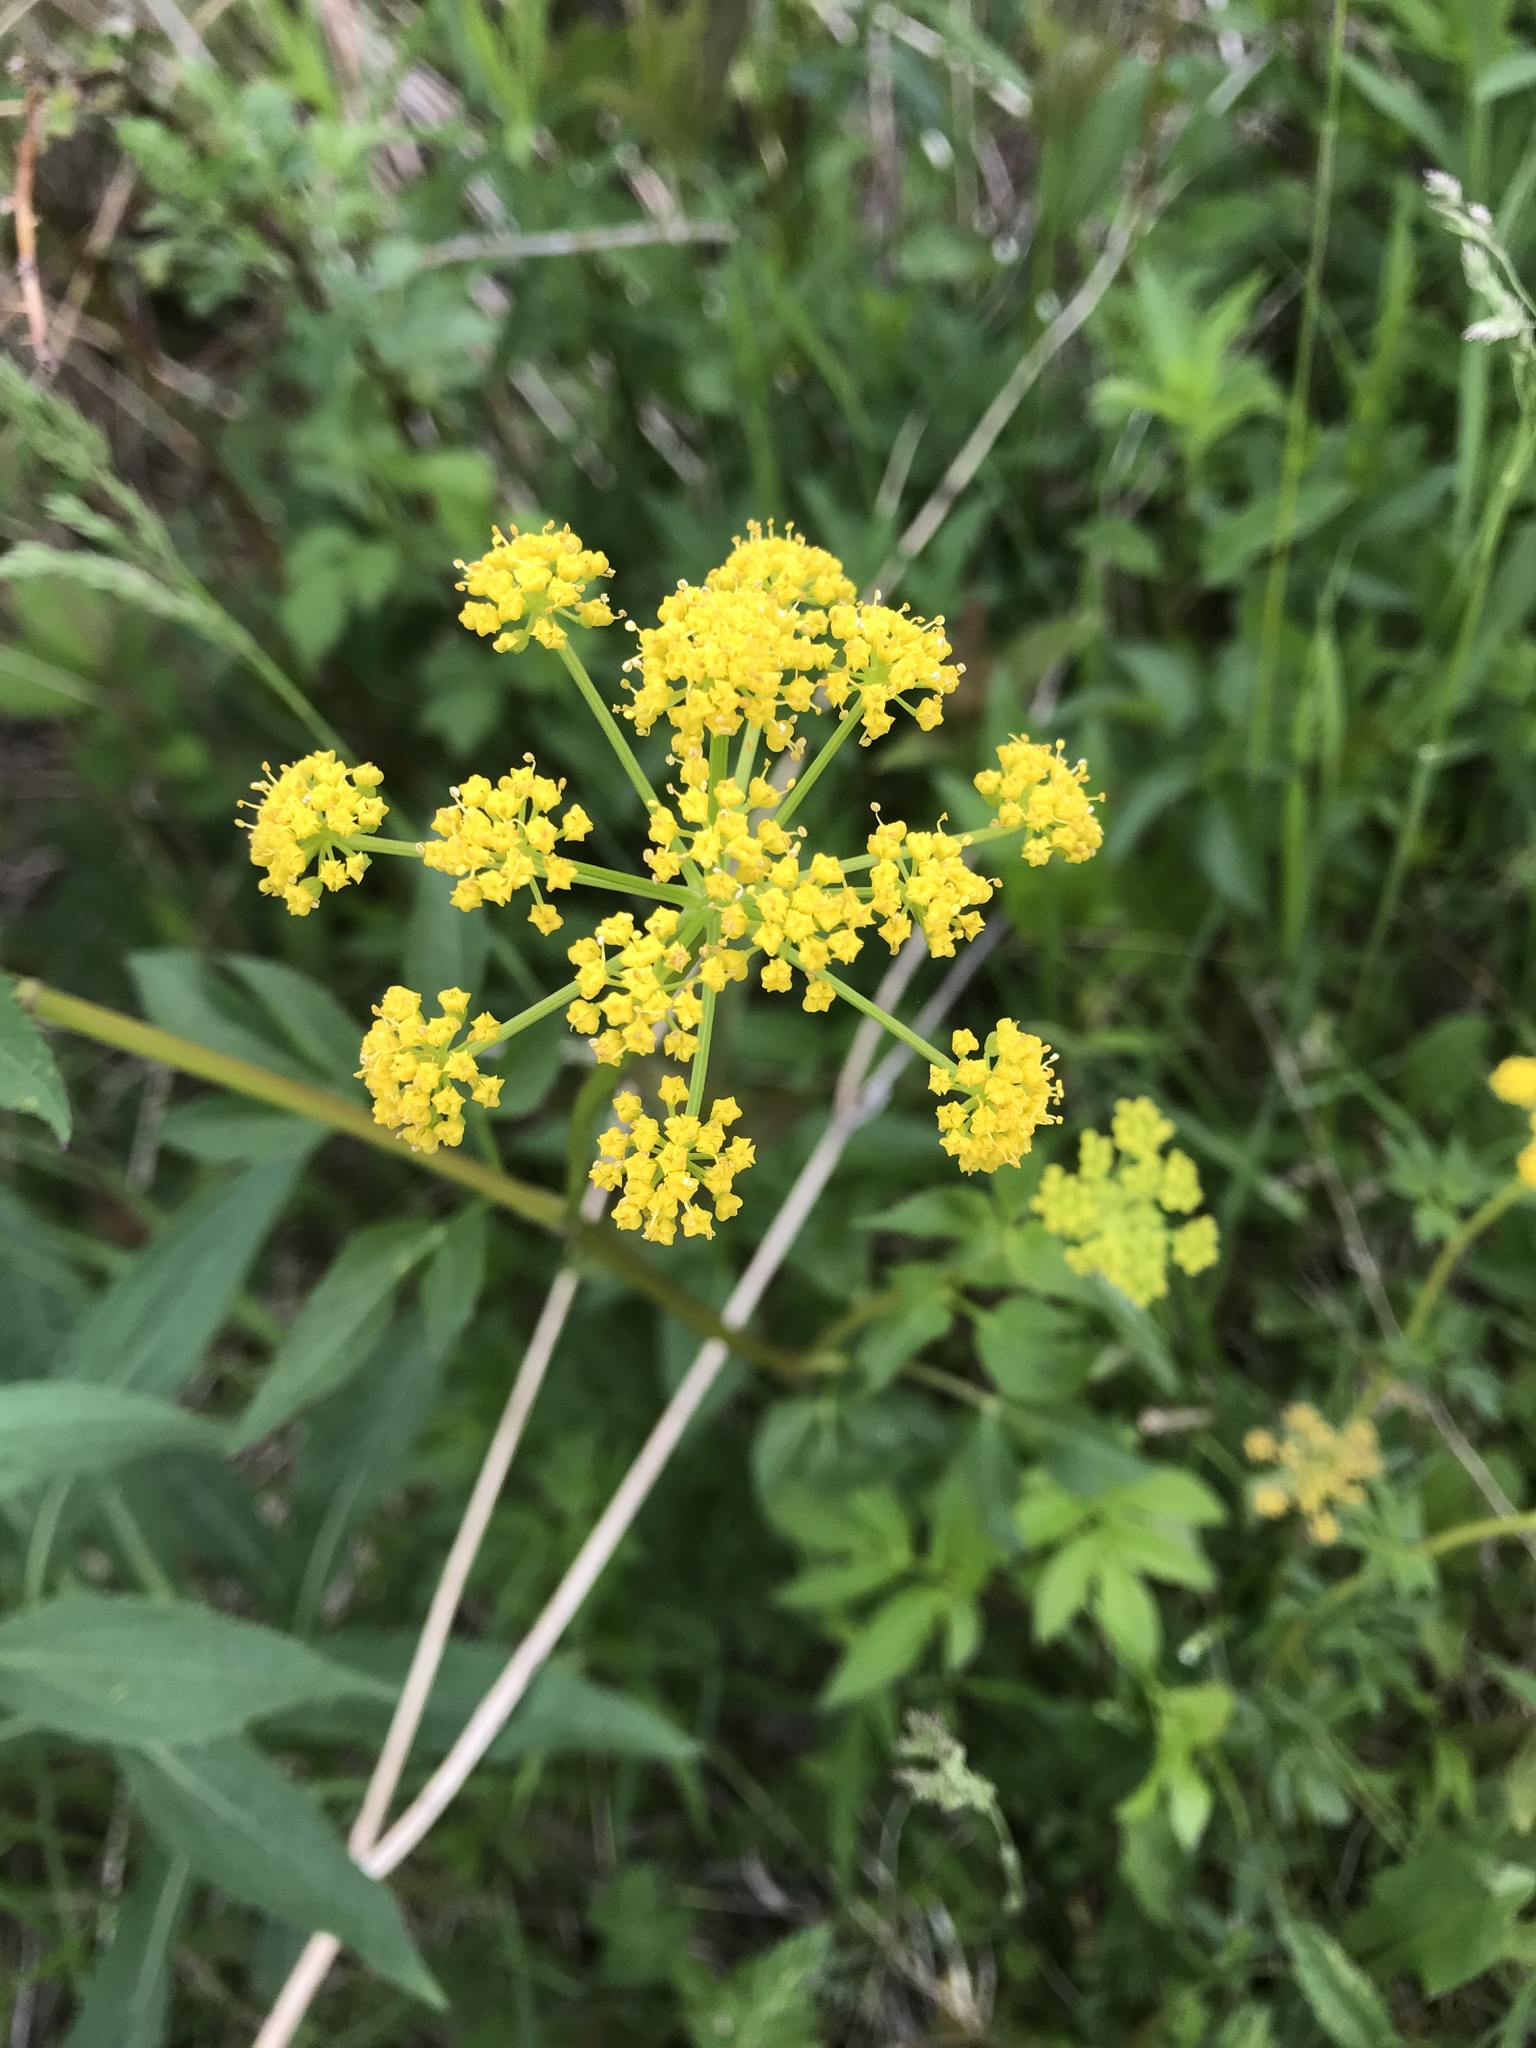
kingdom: Plantae
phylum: Tracheophyta
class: Magnoliopsida
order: Apiales
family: Apiaceae
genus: Zizia
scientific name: Zizia aurea
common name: Golden alexanders
